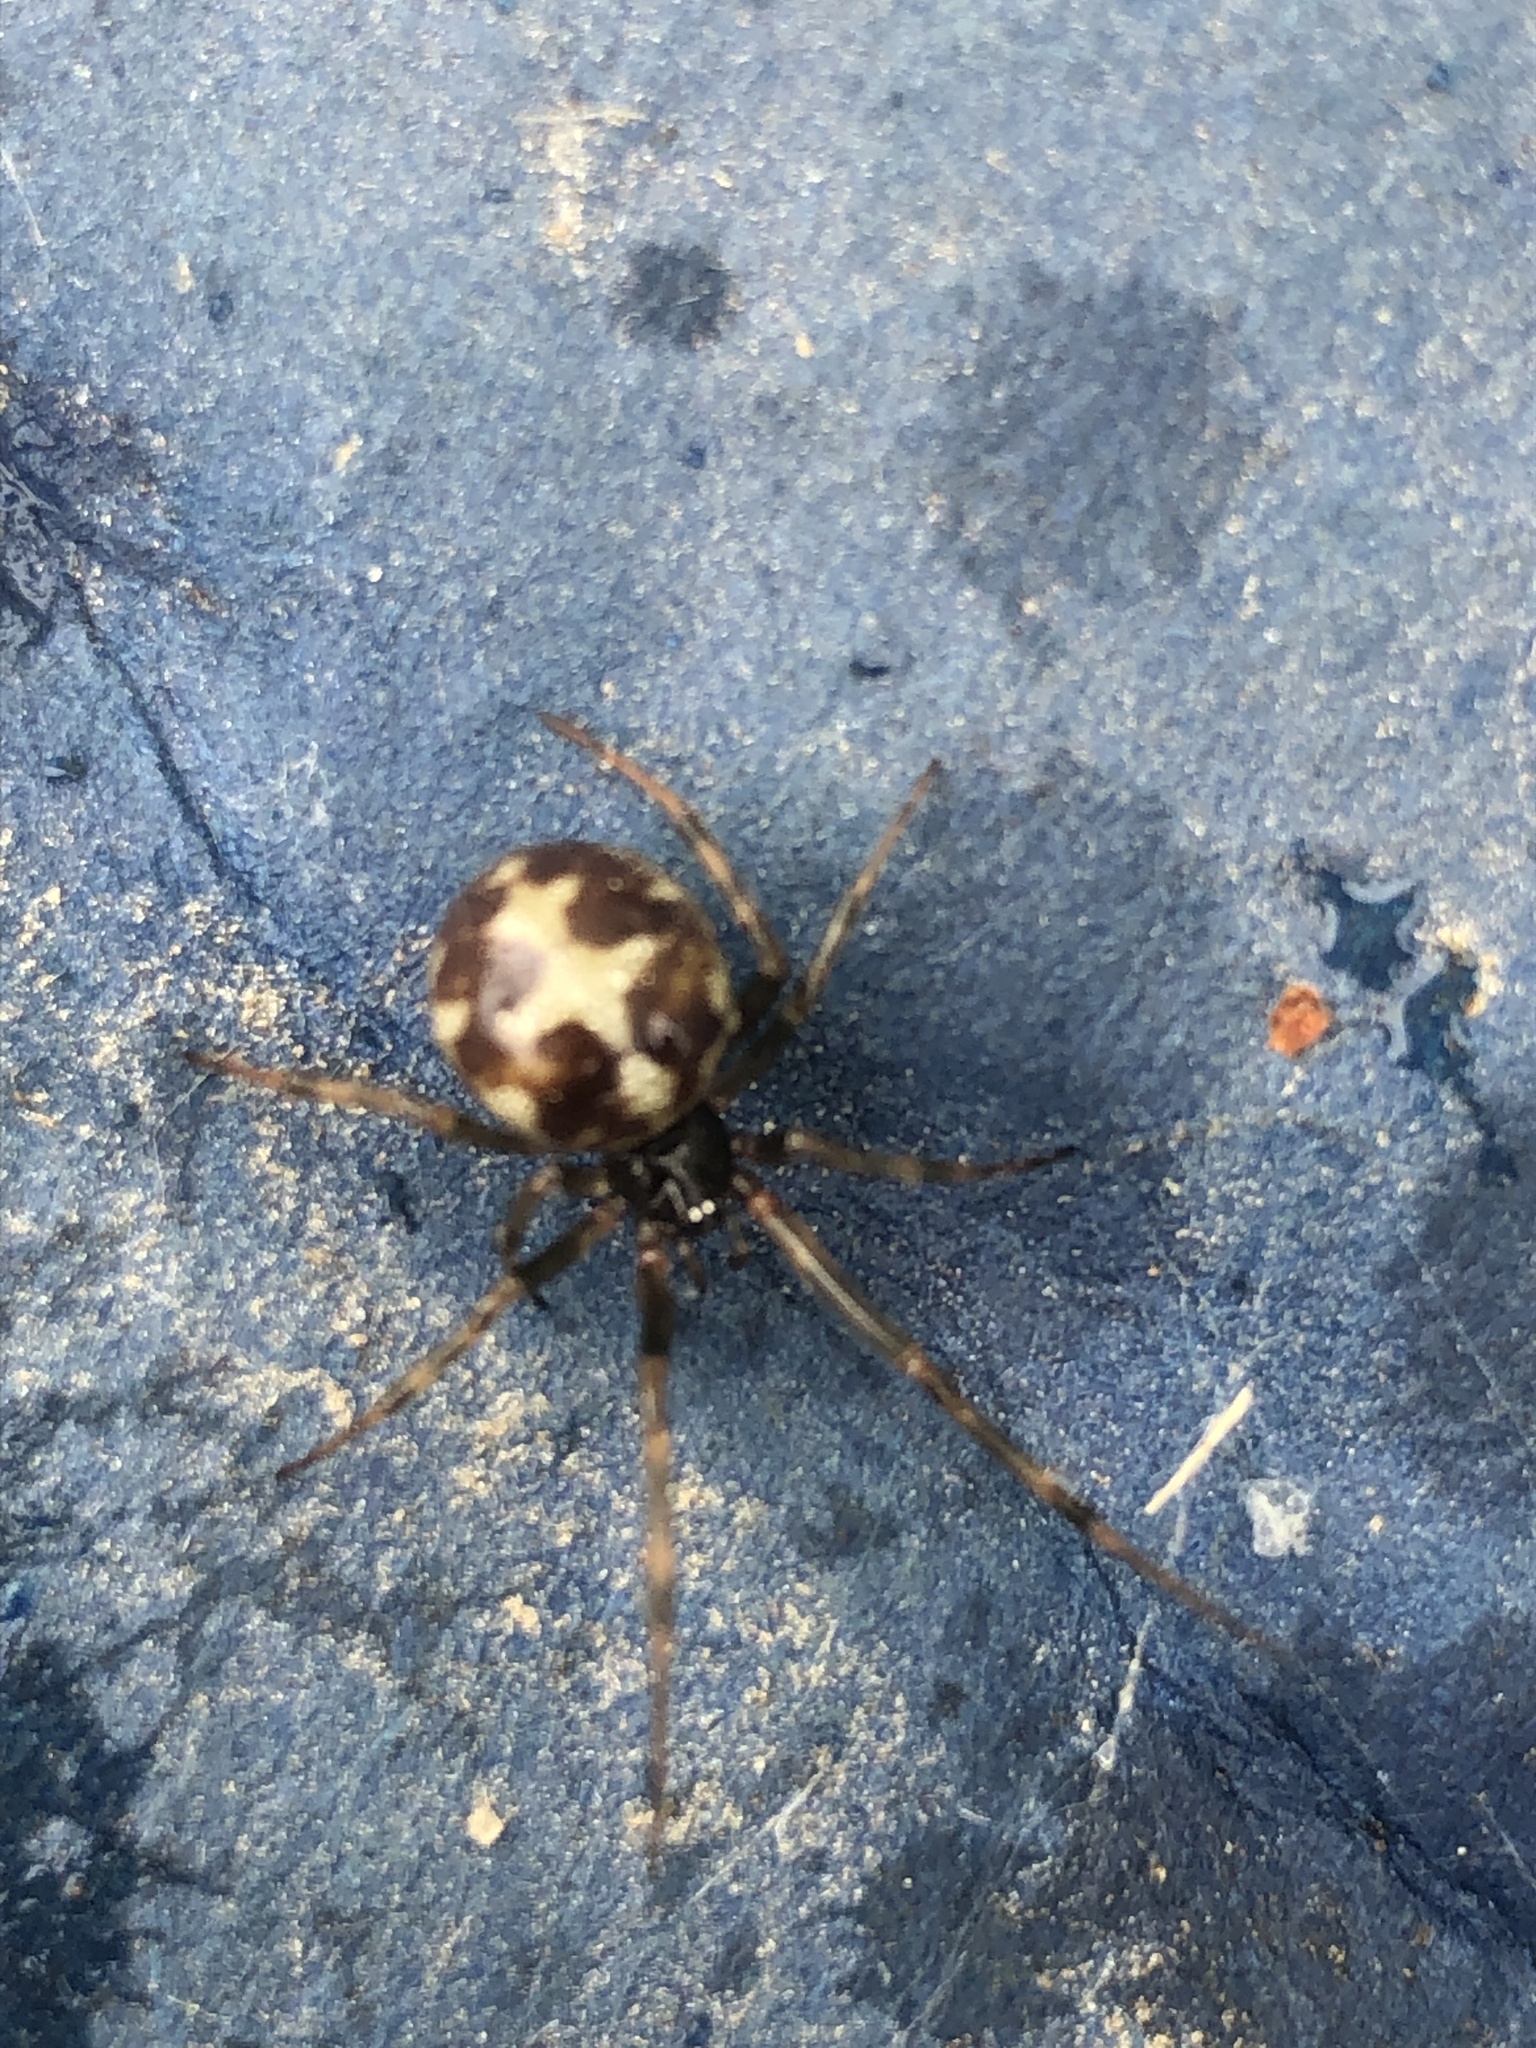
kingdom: Animalia
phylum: Arthropoda
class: Arachnida
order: Araneae
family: Theridiidae
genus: Steatoda
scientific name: Steatoda triangulosa
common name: Triangulate bud spider
